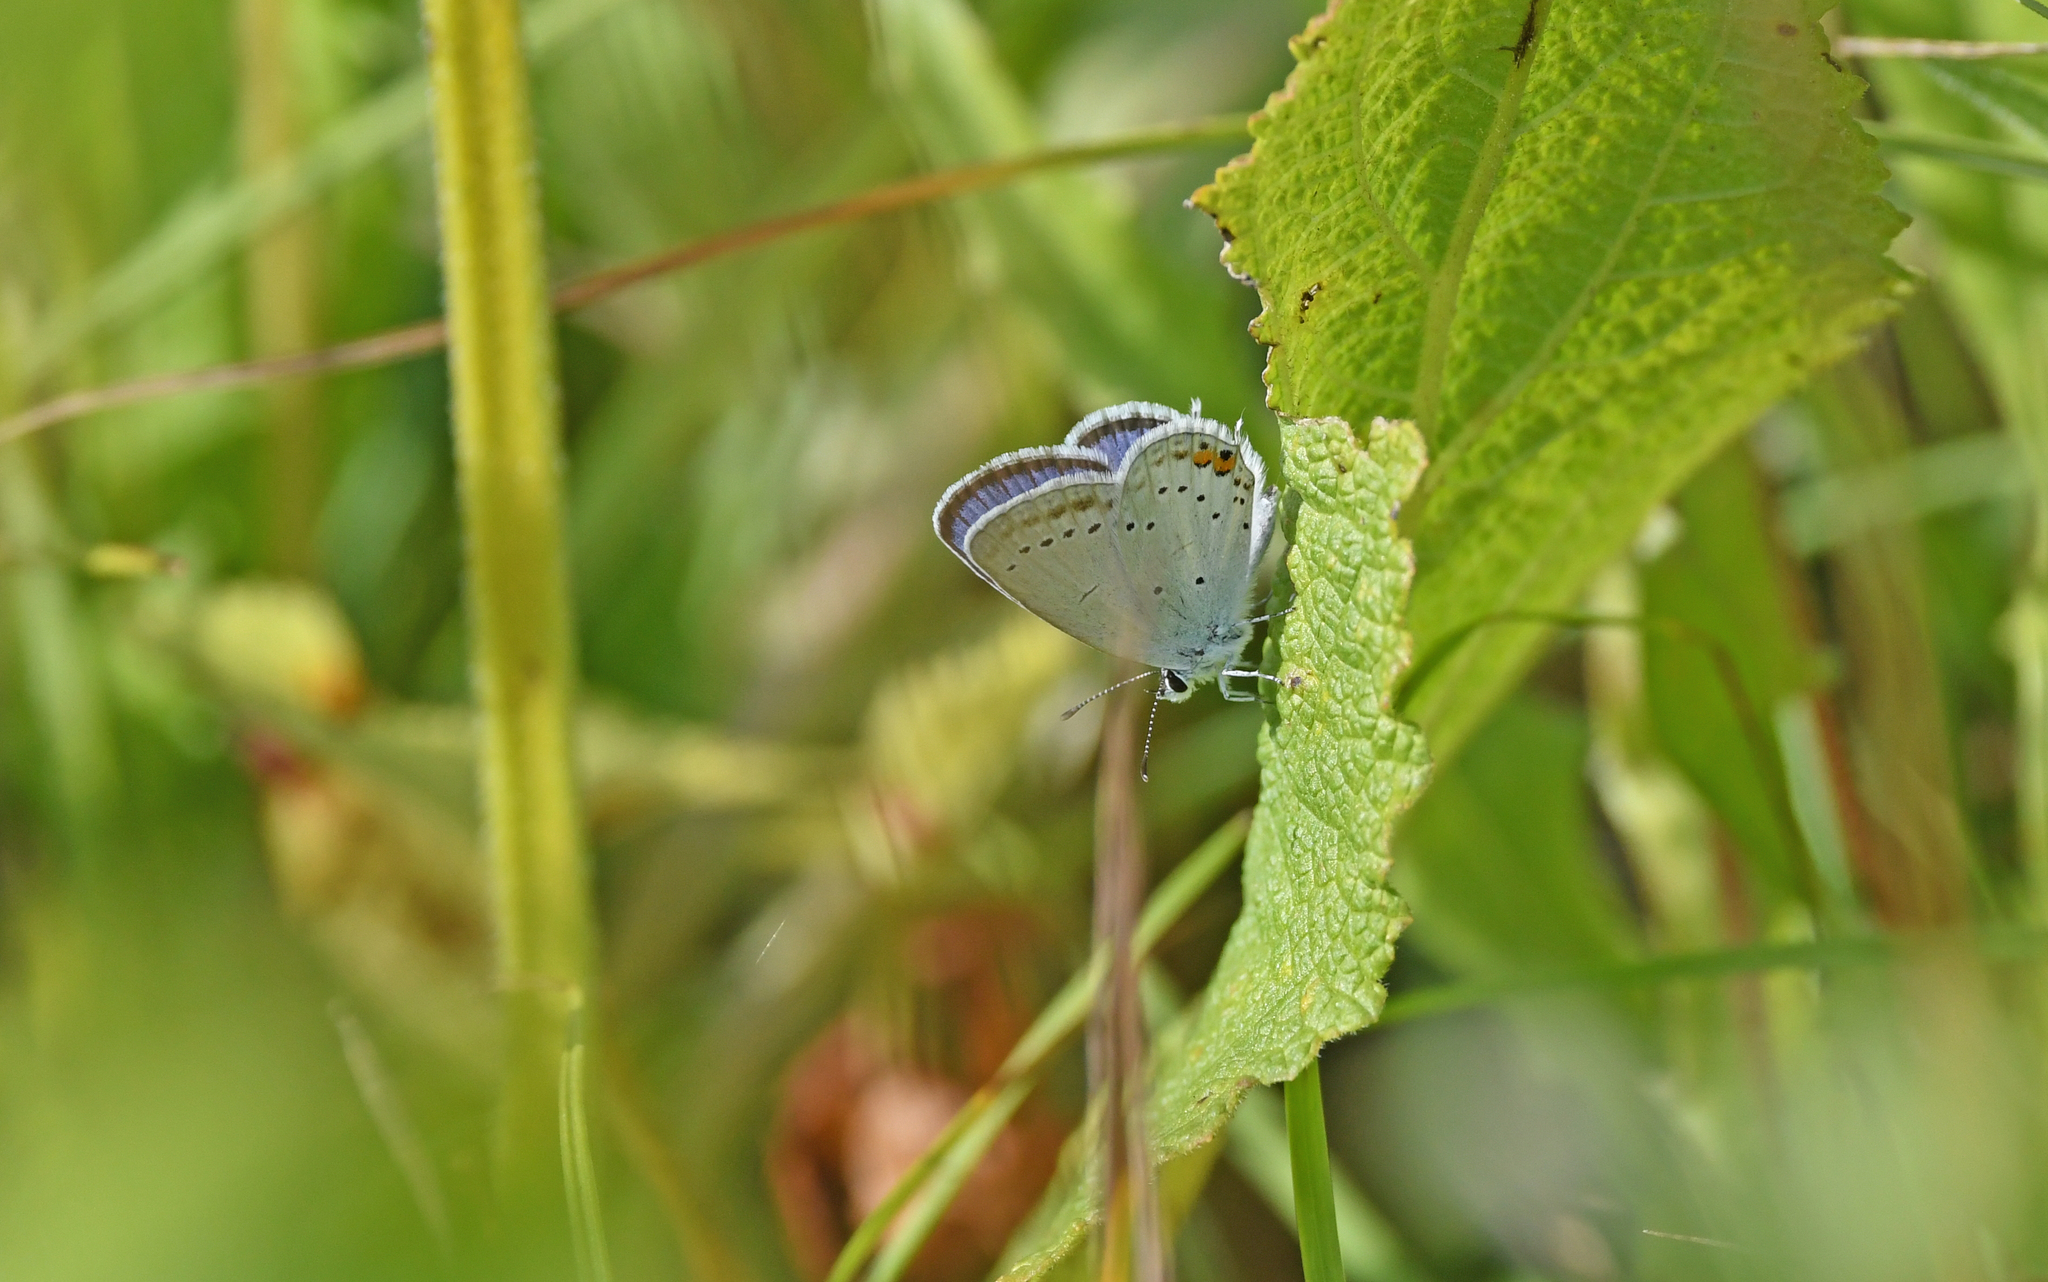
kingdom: Animalia
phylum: Arthropoda
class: Insecta
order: Lepidoptera
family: Lycaenidae
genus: Elkalyce
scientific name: Elkalyce argiades
